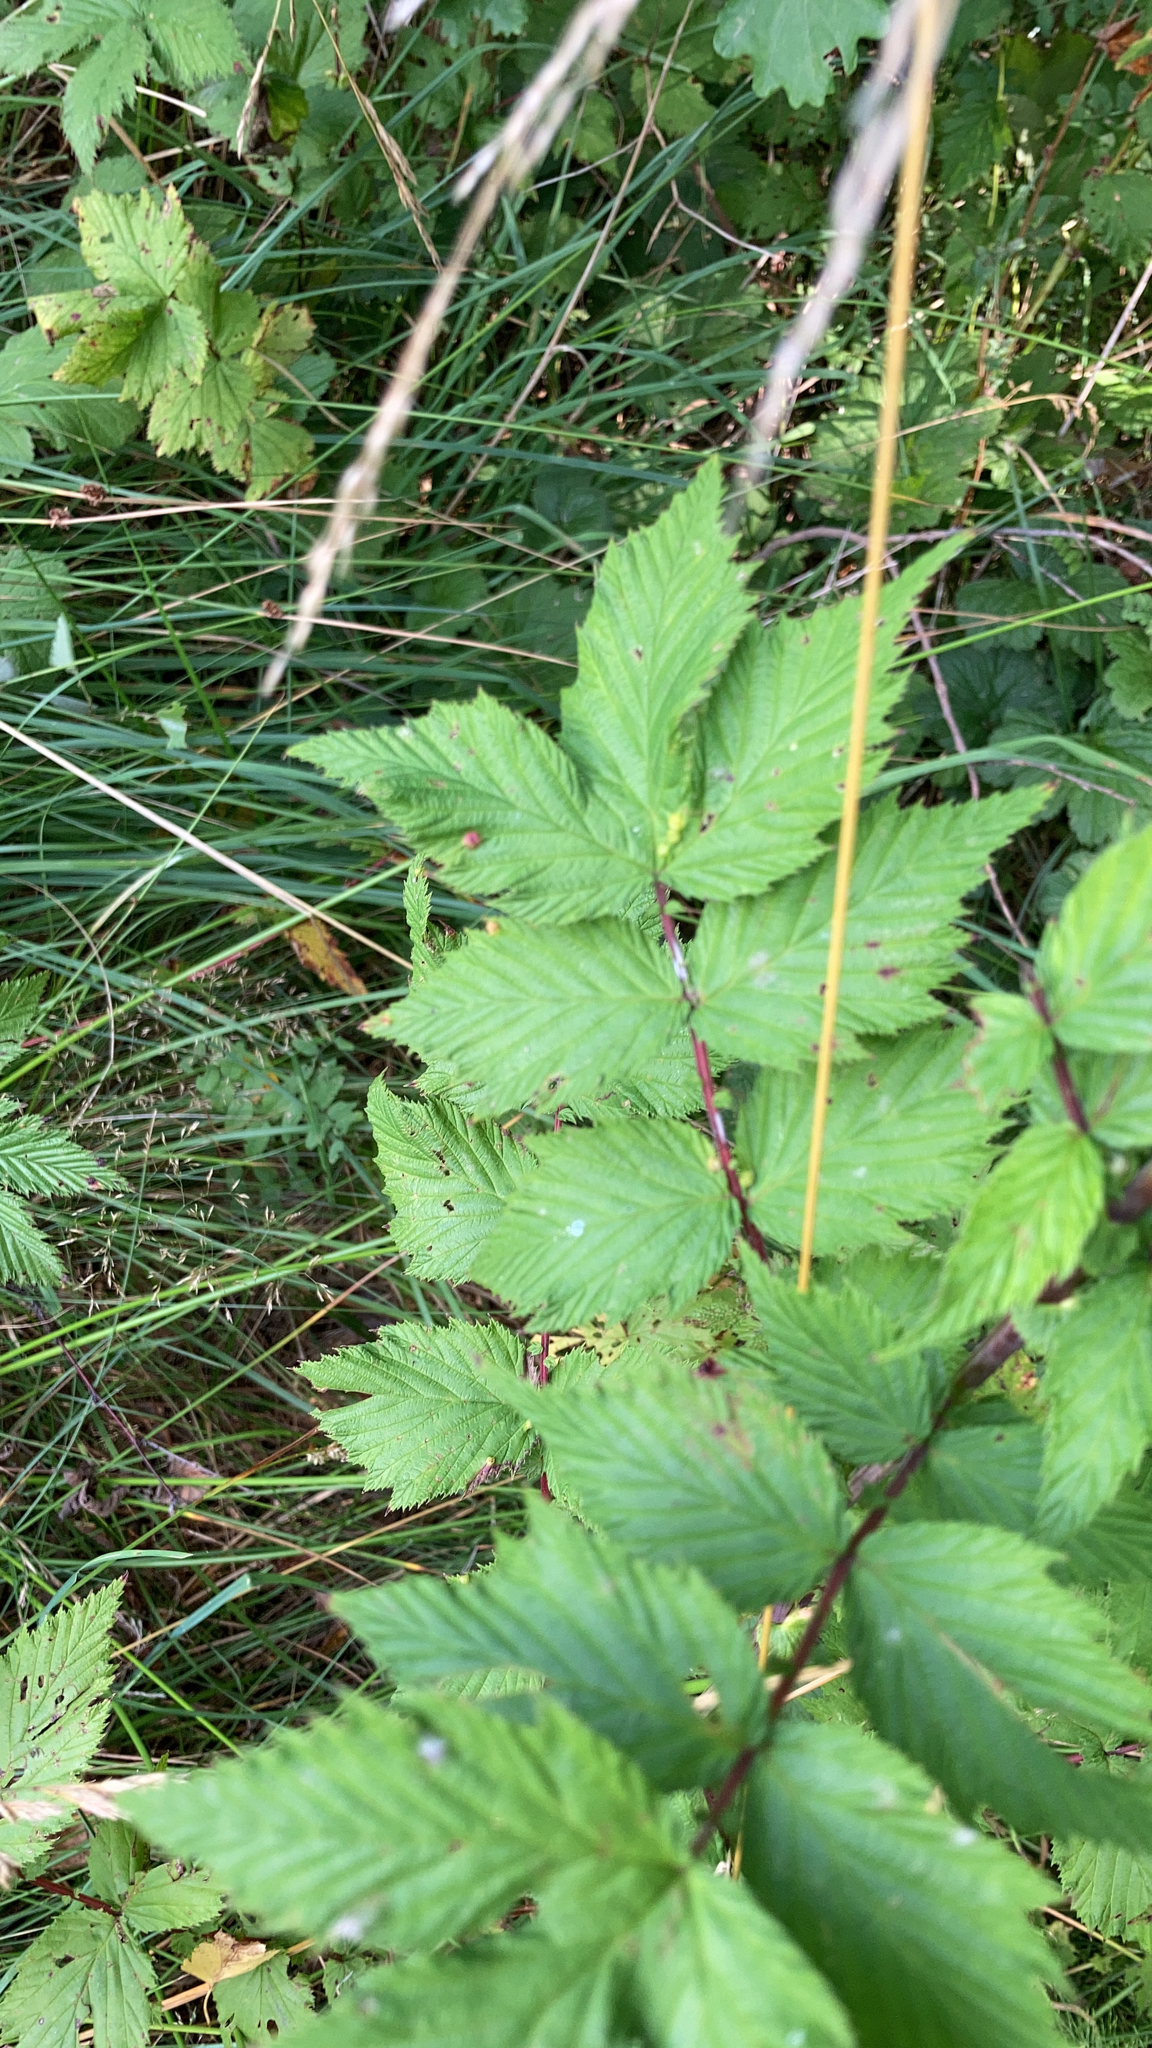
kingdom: Plantae
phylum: Tracheophyta
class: Magnoliopsida
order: Rosales
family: Rosaceae
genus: Filipendula
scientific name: Filipendula ulmaria
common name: Meadowsweet
